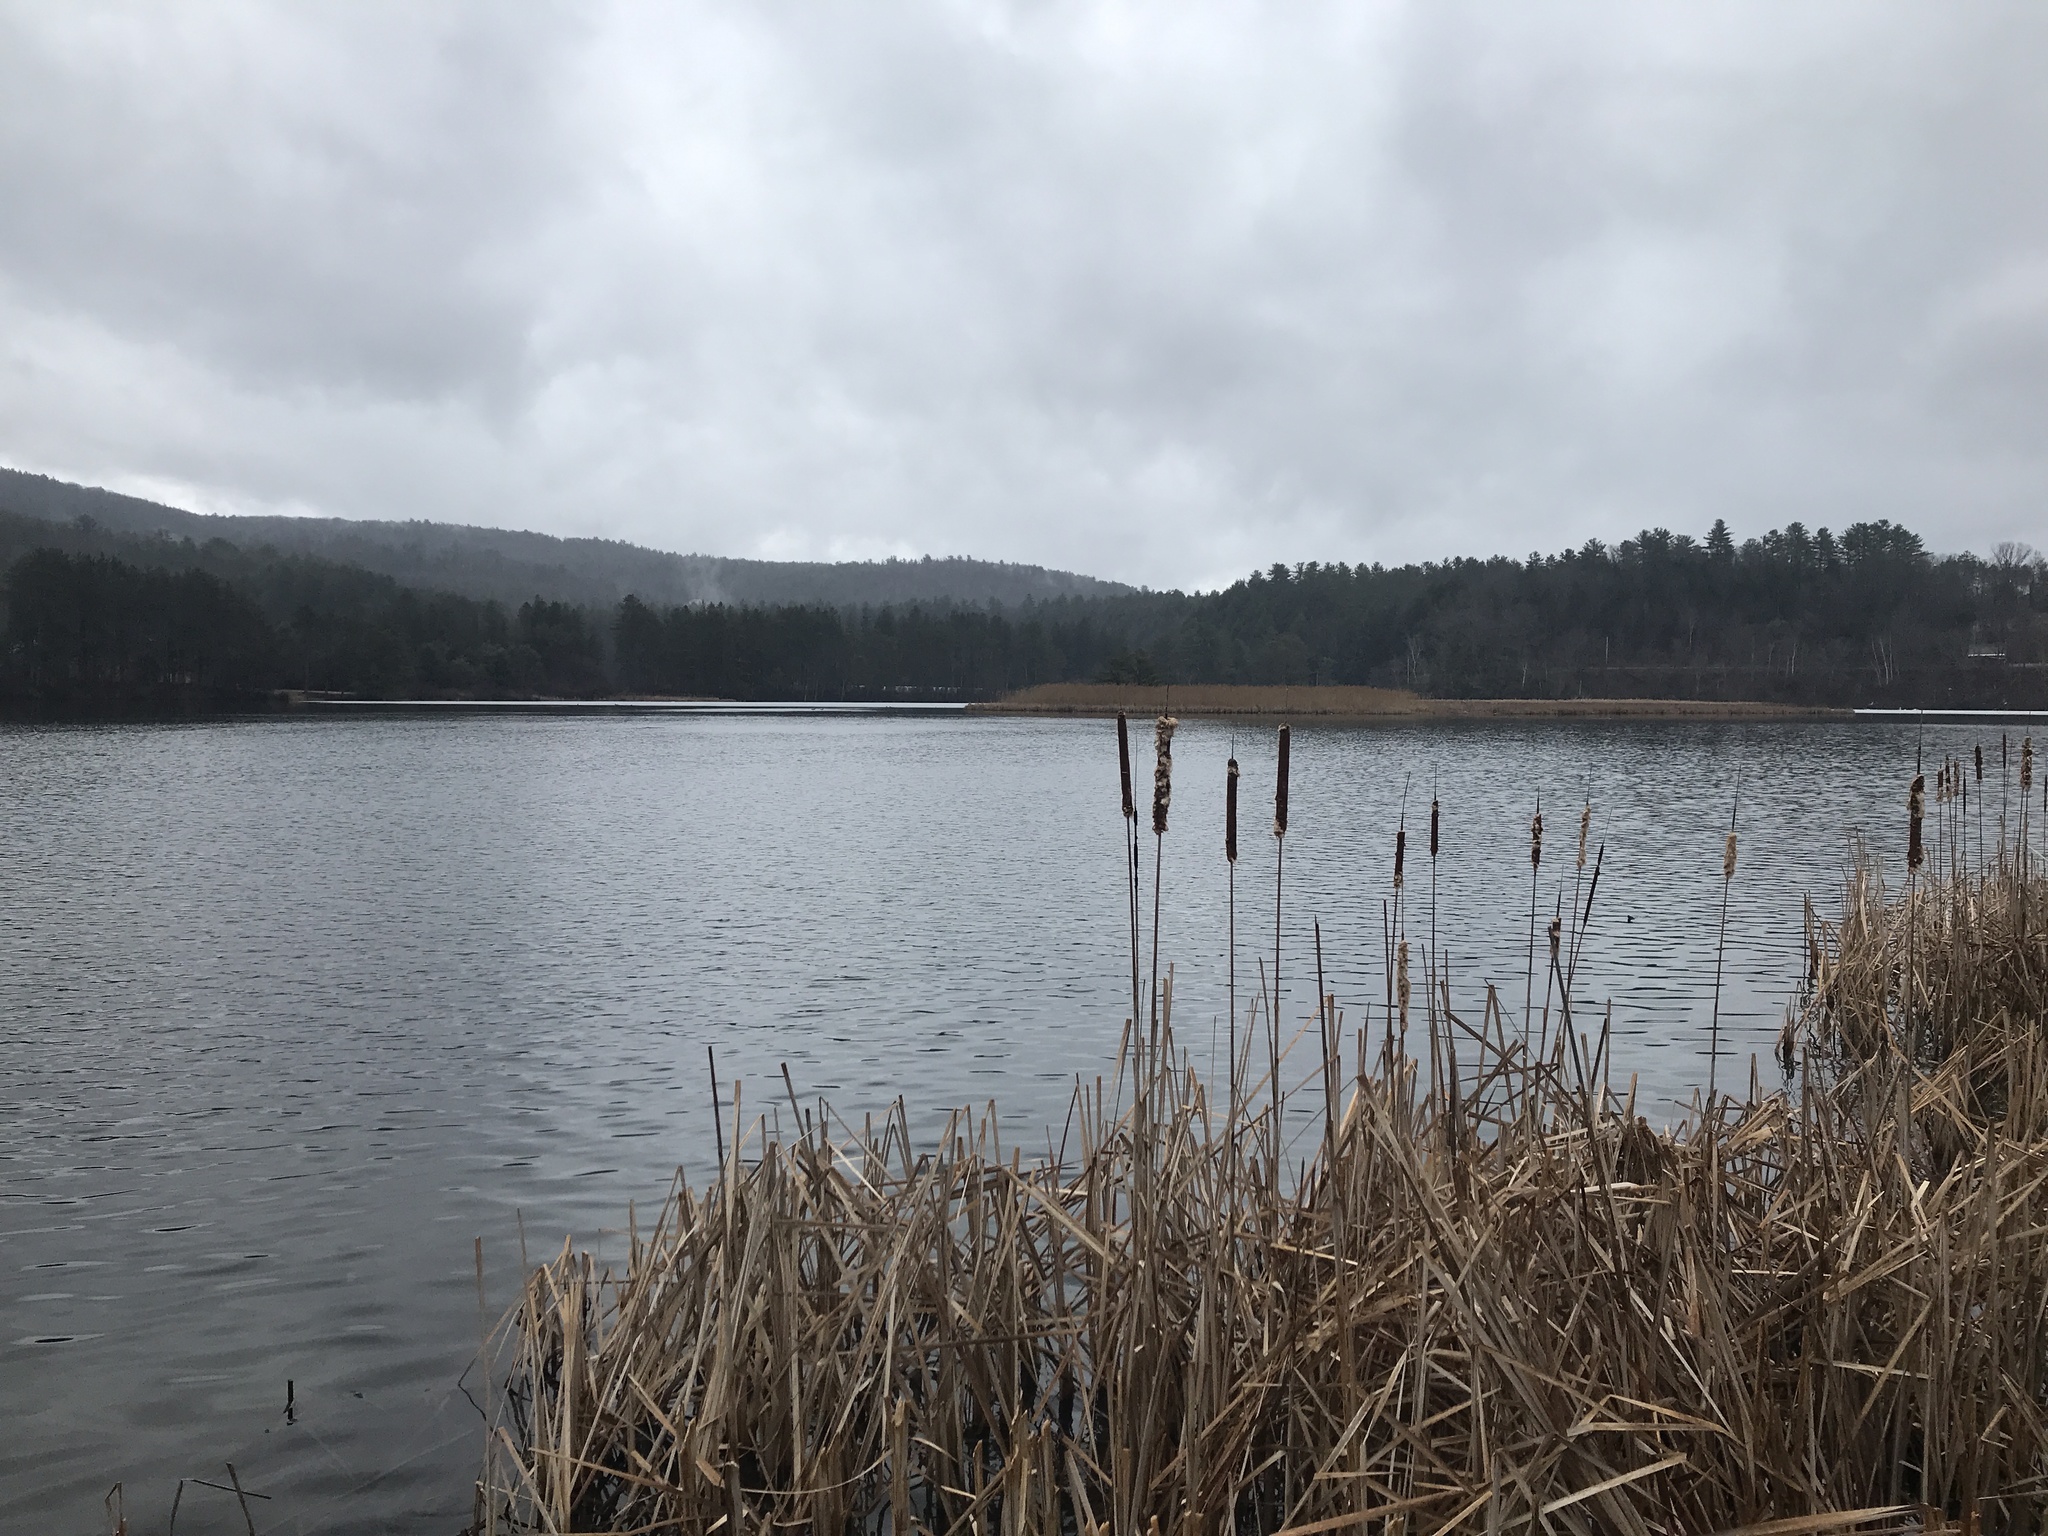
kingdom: Plantae
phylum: Tracheophyta
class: Liliopsida
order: Poales
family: Typhaceae
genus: Typha
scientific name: Typha latifolia
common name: Broadleaf cattail
